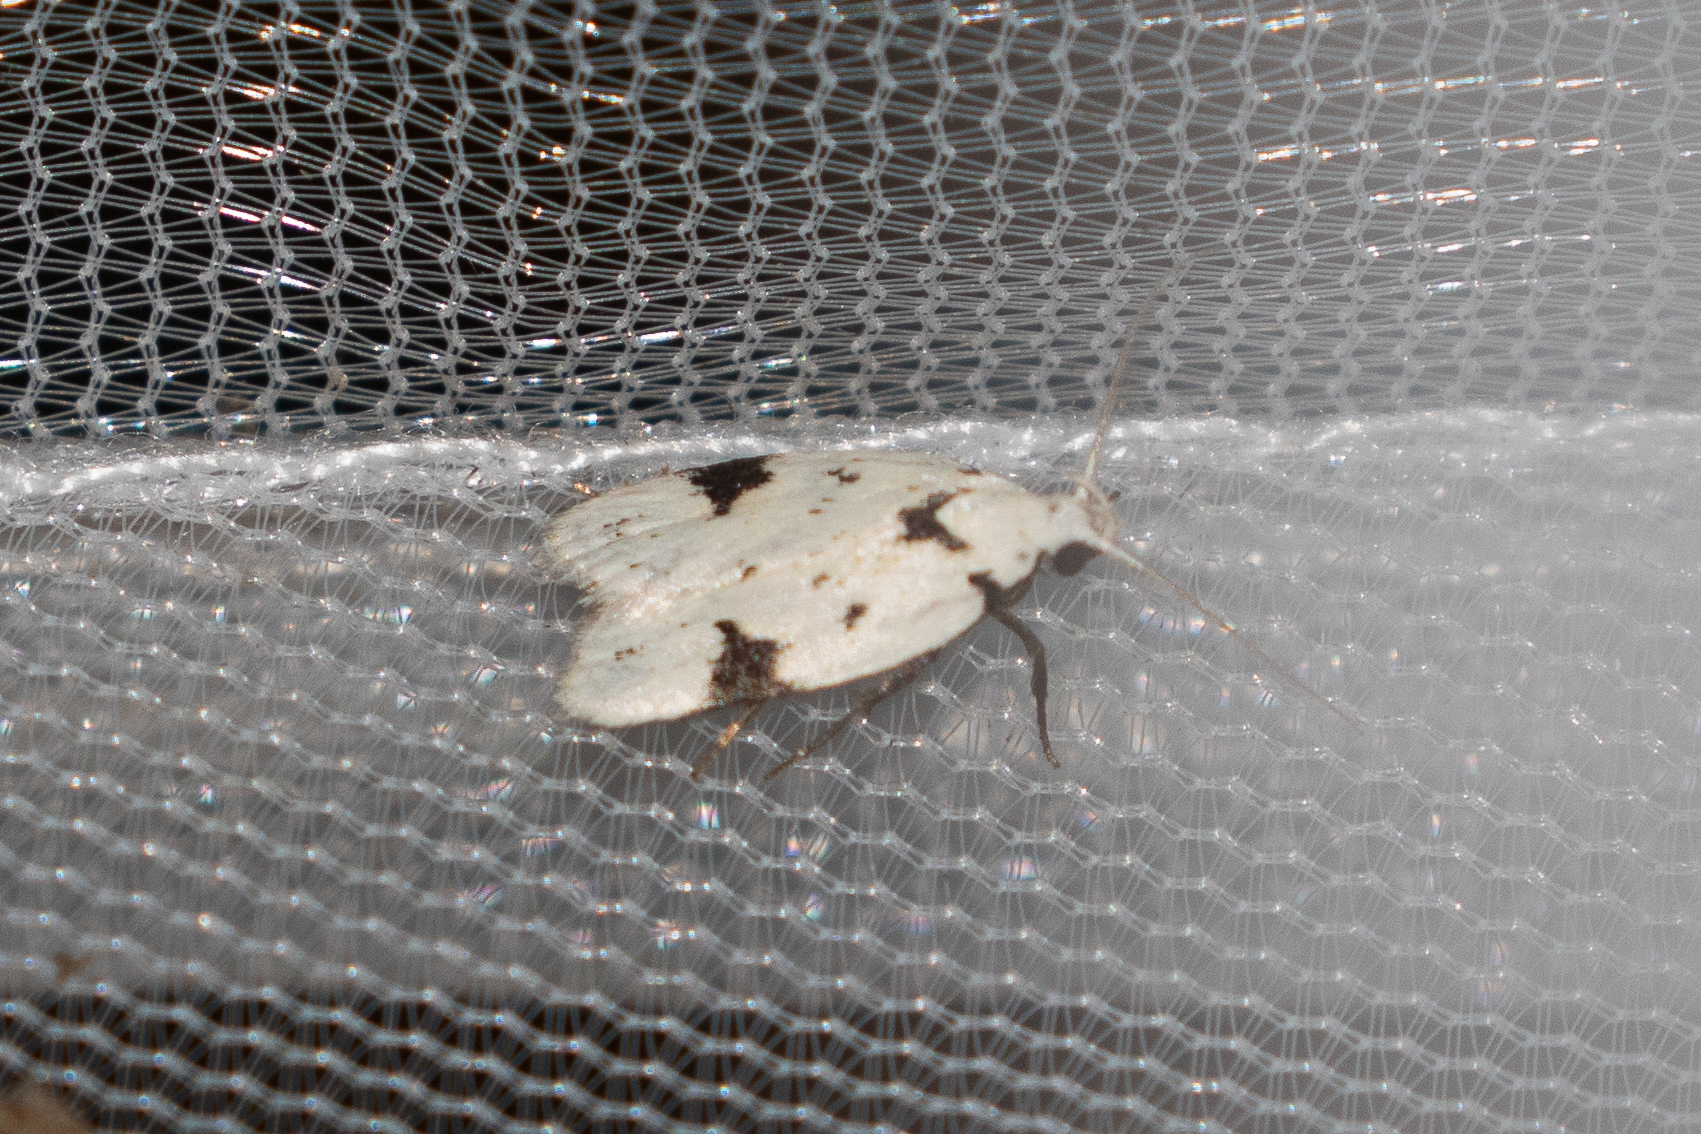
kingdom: Animalia
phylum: Arthropoda
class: Insecta
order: Lepidoptera
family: Oecophoridae
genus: Inga
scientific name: Inga sparsiciliella
